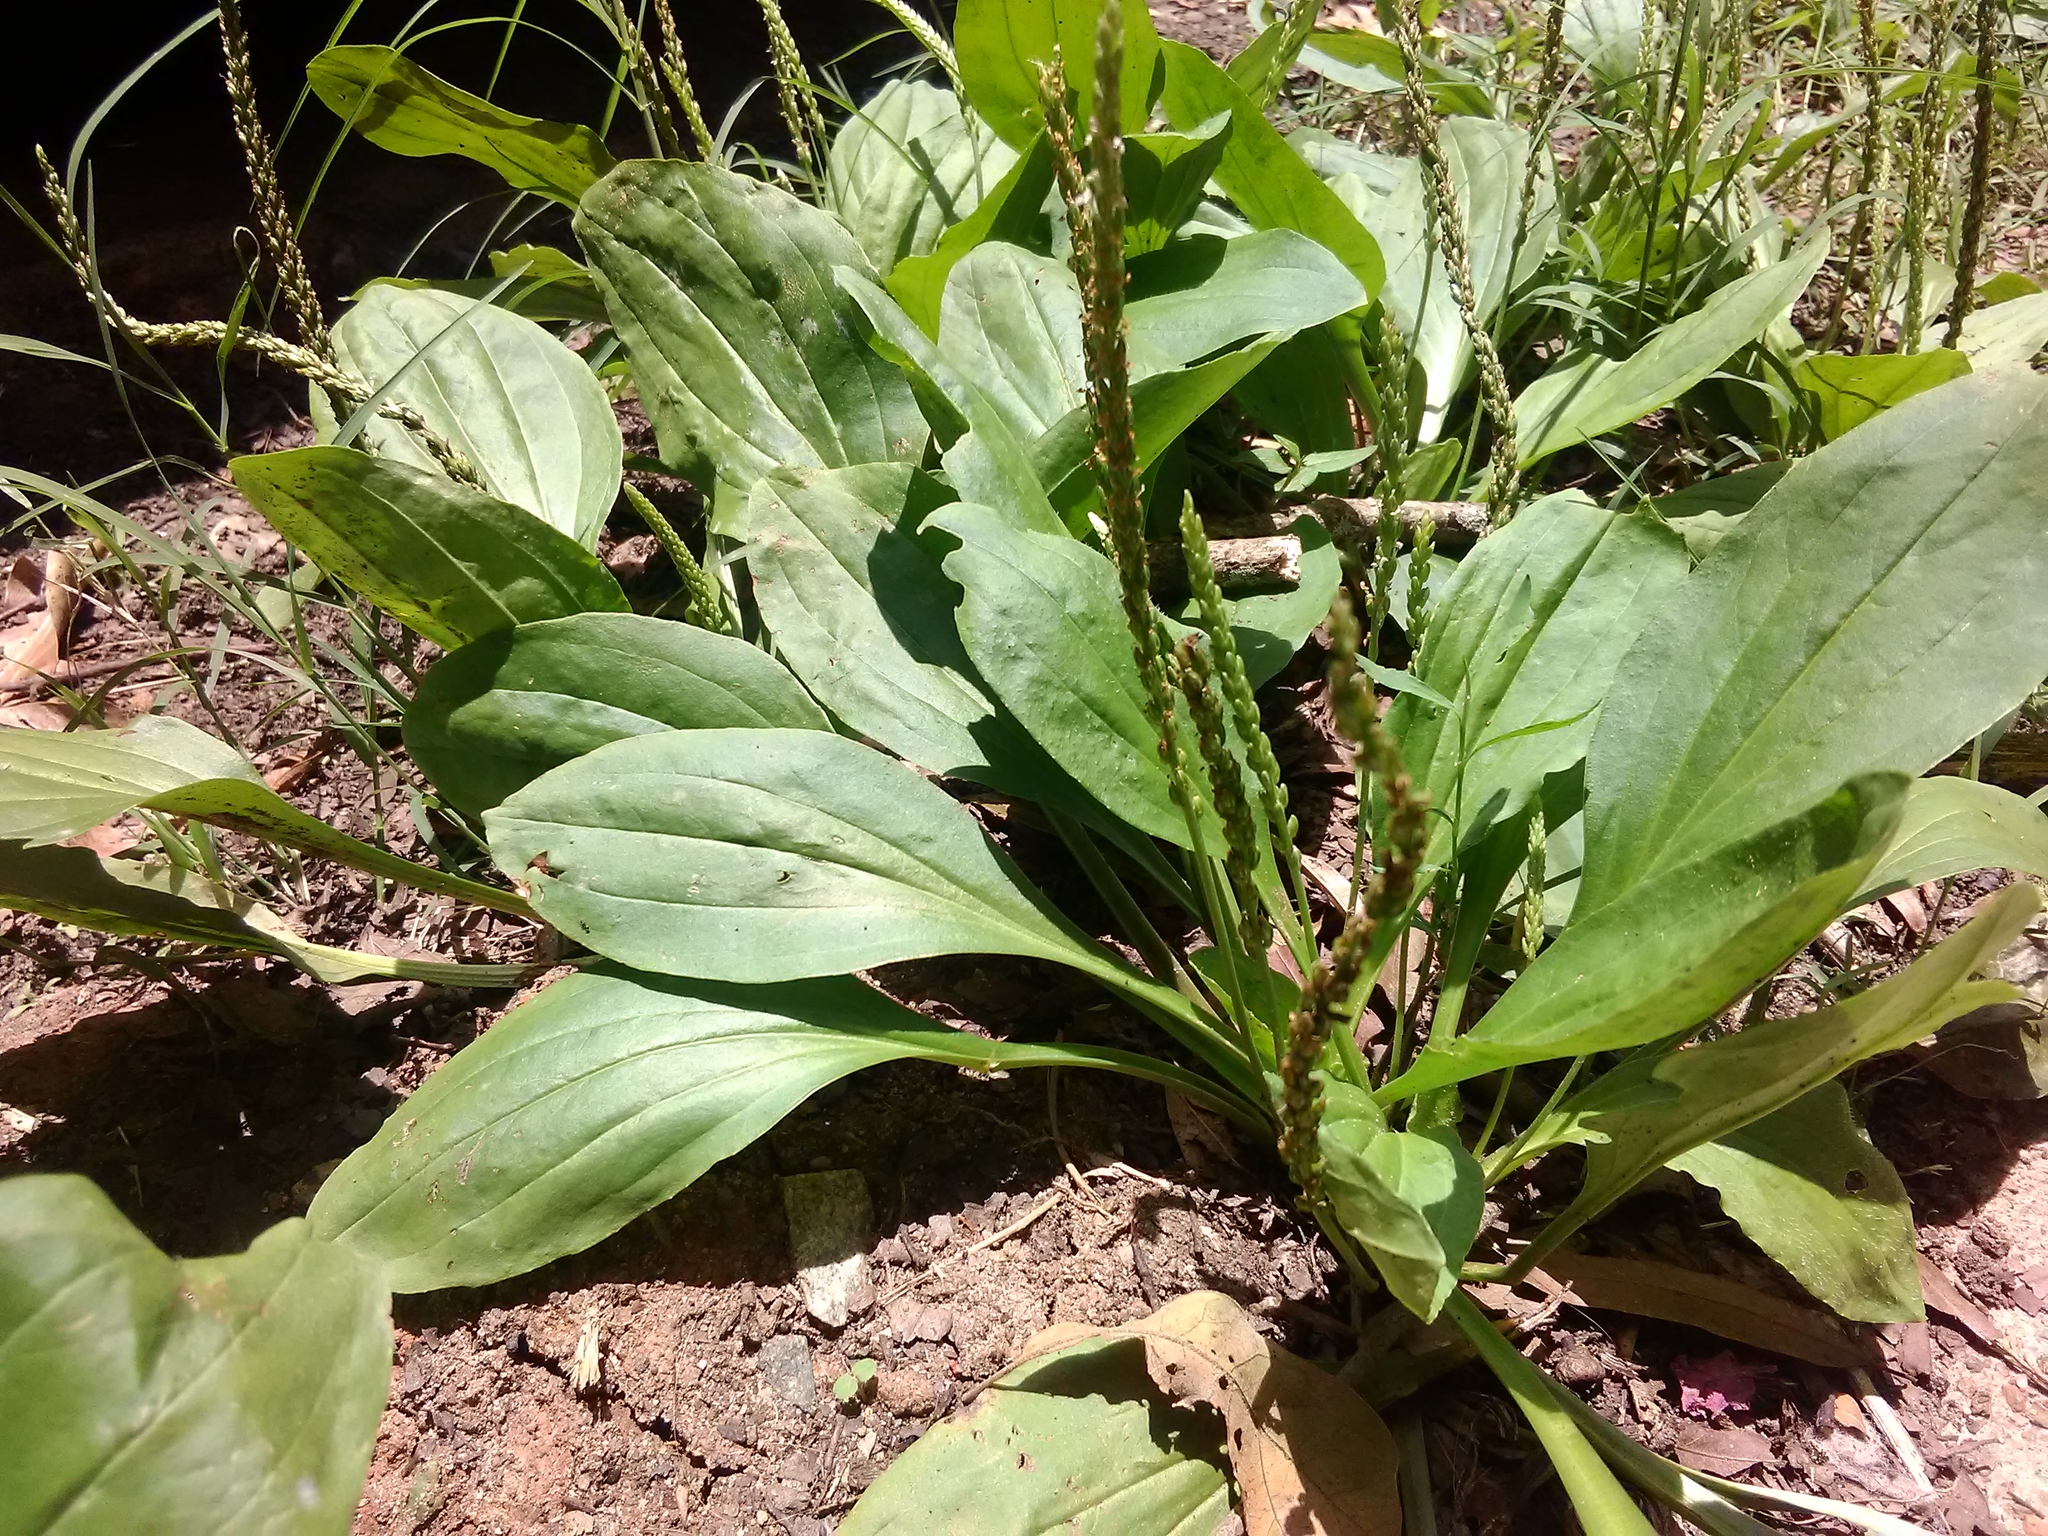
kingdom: Plantae
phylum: Tracheophyta
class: Magnoliopsida
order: Lamiales
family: Plantaginaceae
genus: Plantago
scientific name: Plantago major
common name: Common plantain
